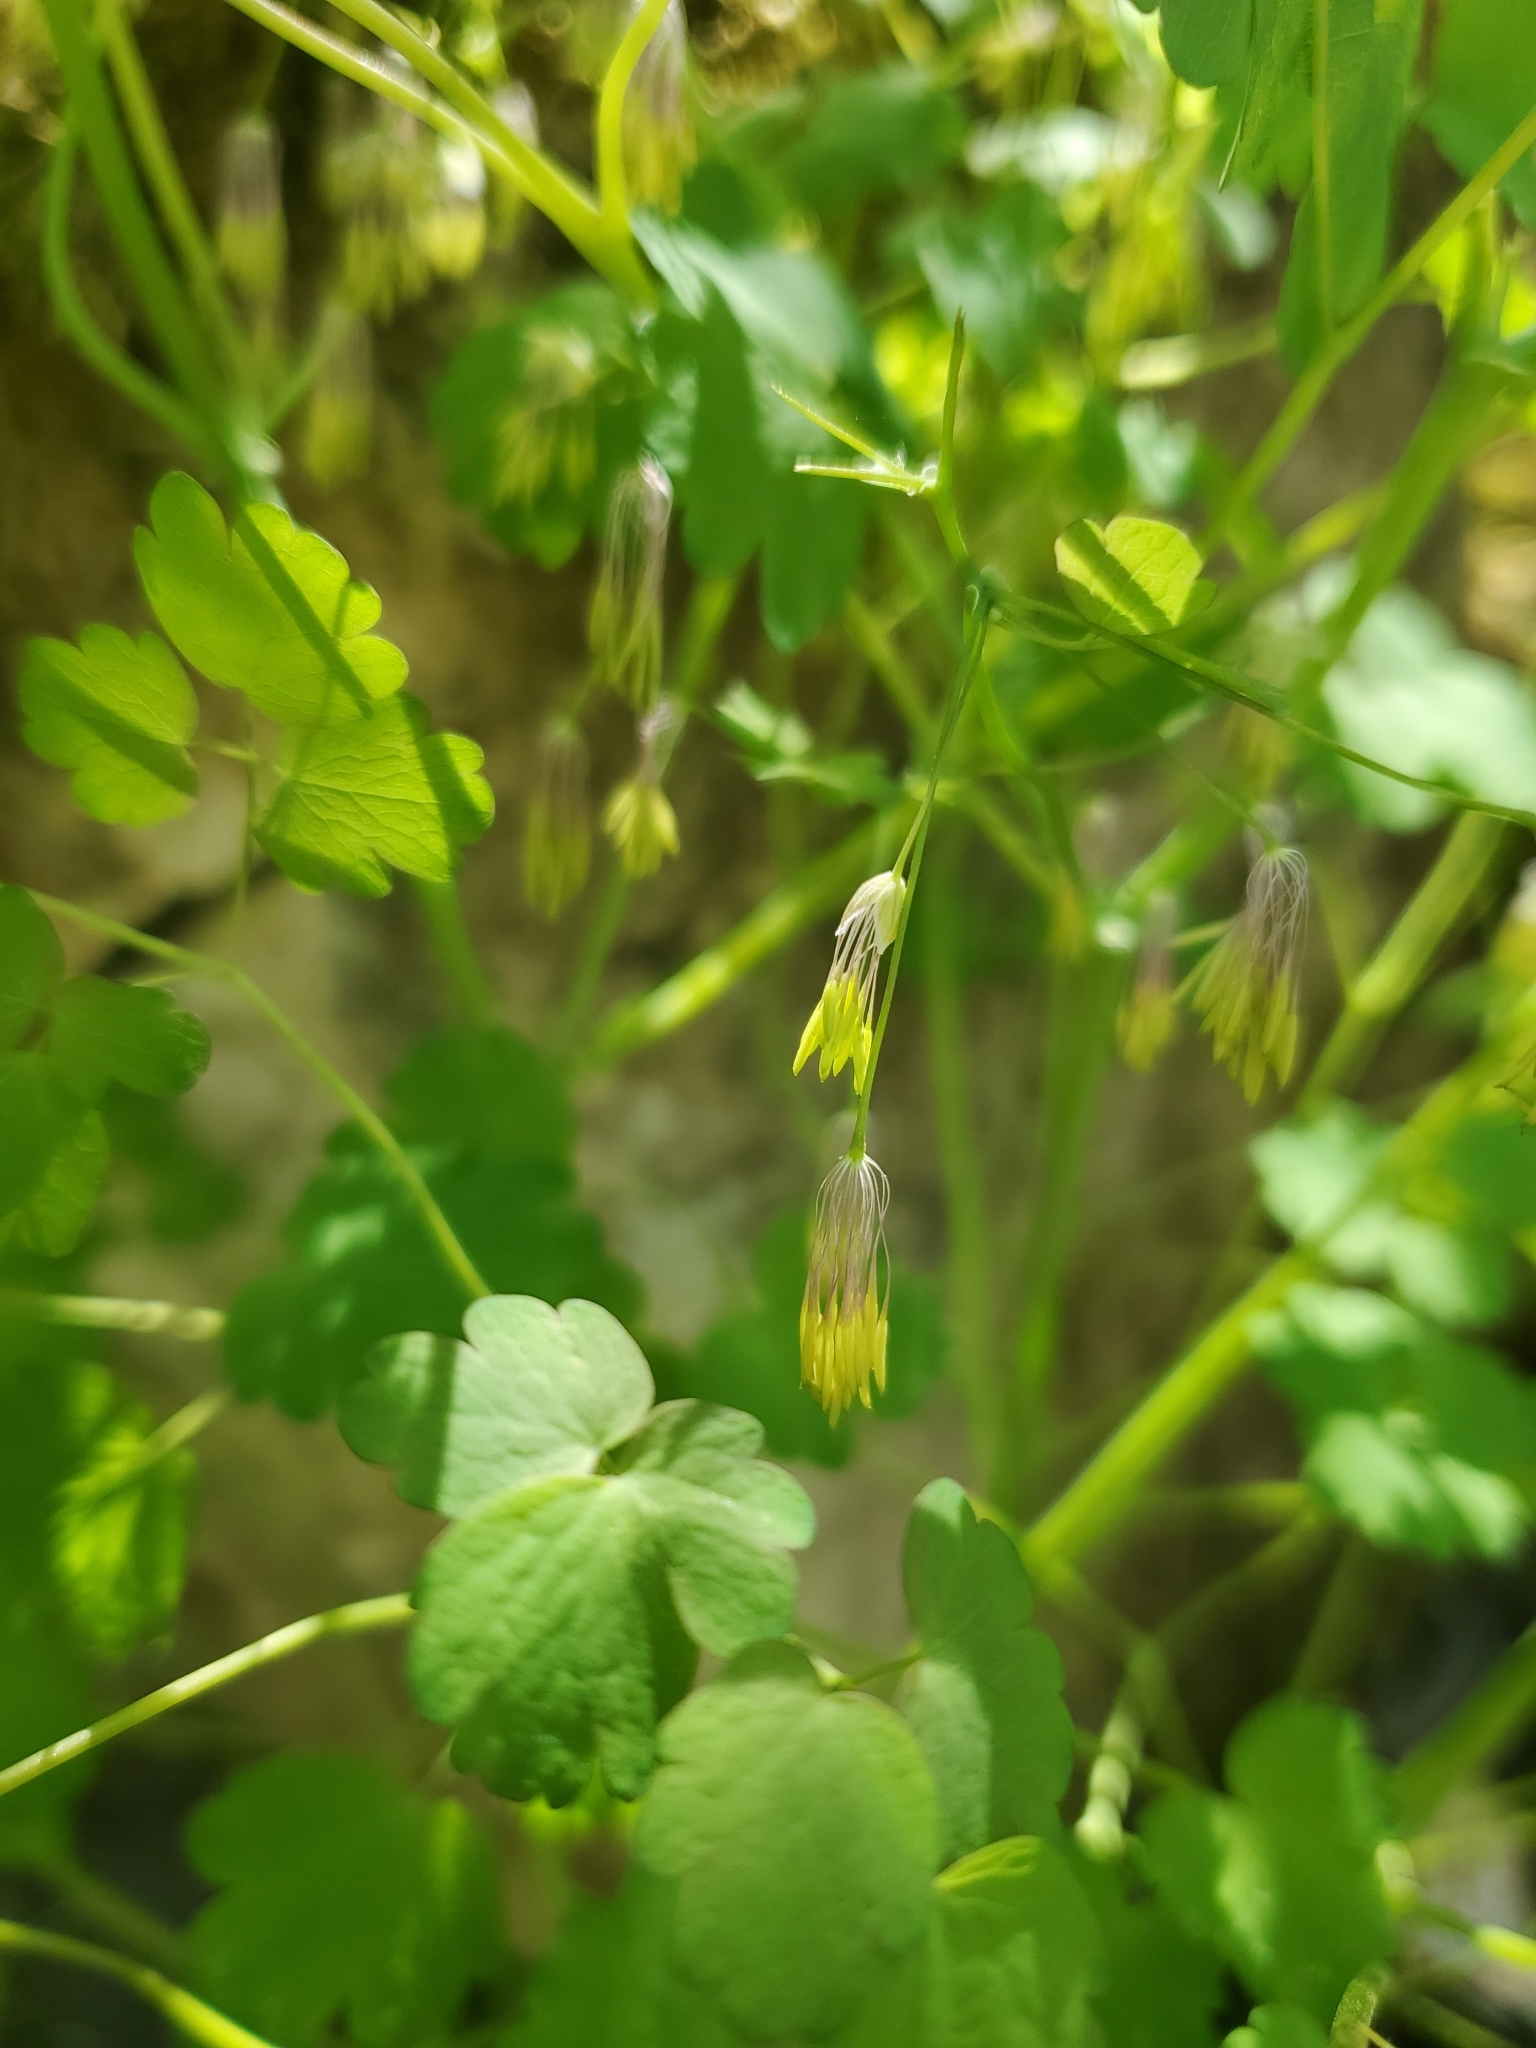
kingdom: Plantae
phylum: Tracheophyta
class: Magnoliopsida
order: Ranunculales
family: Ranunculaceae
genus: Thalictrum
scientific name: Thalictrum dioicum
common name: Early meadow-rue
